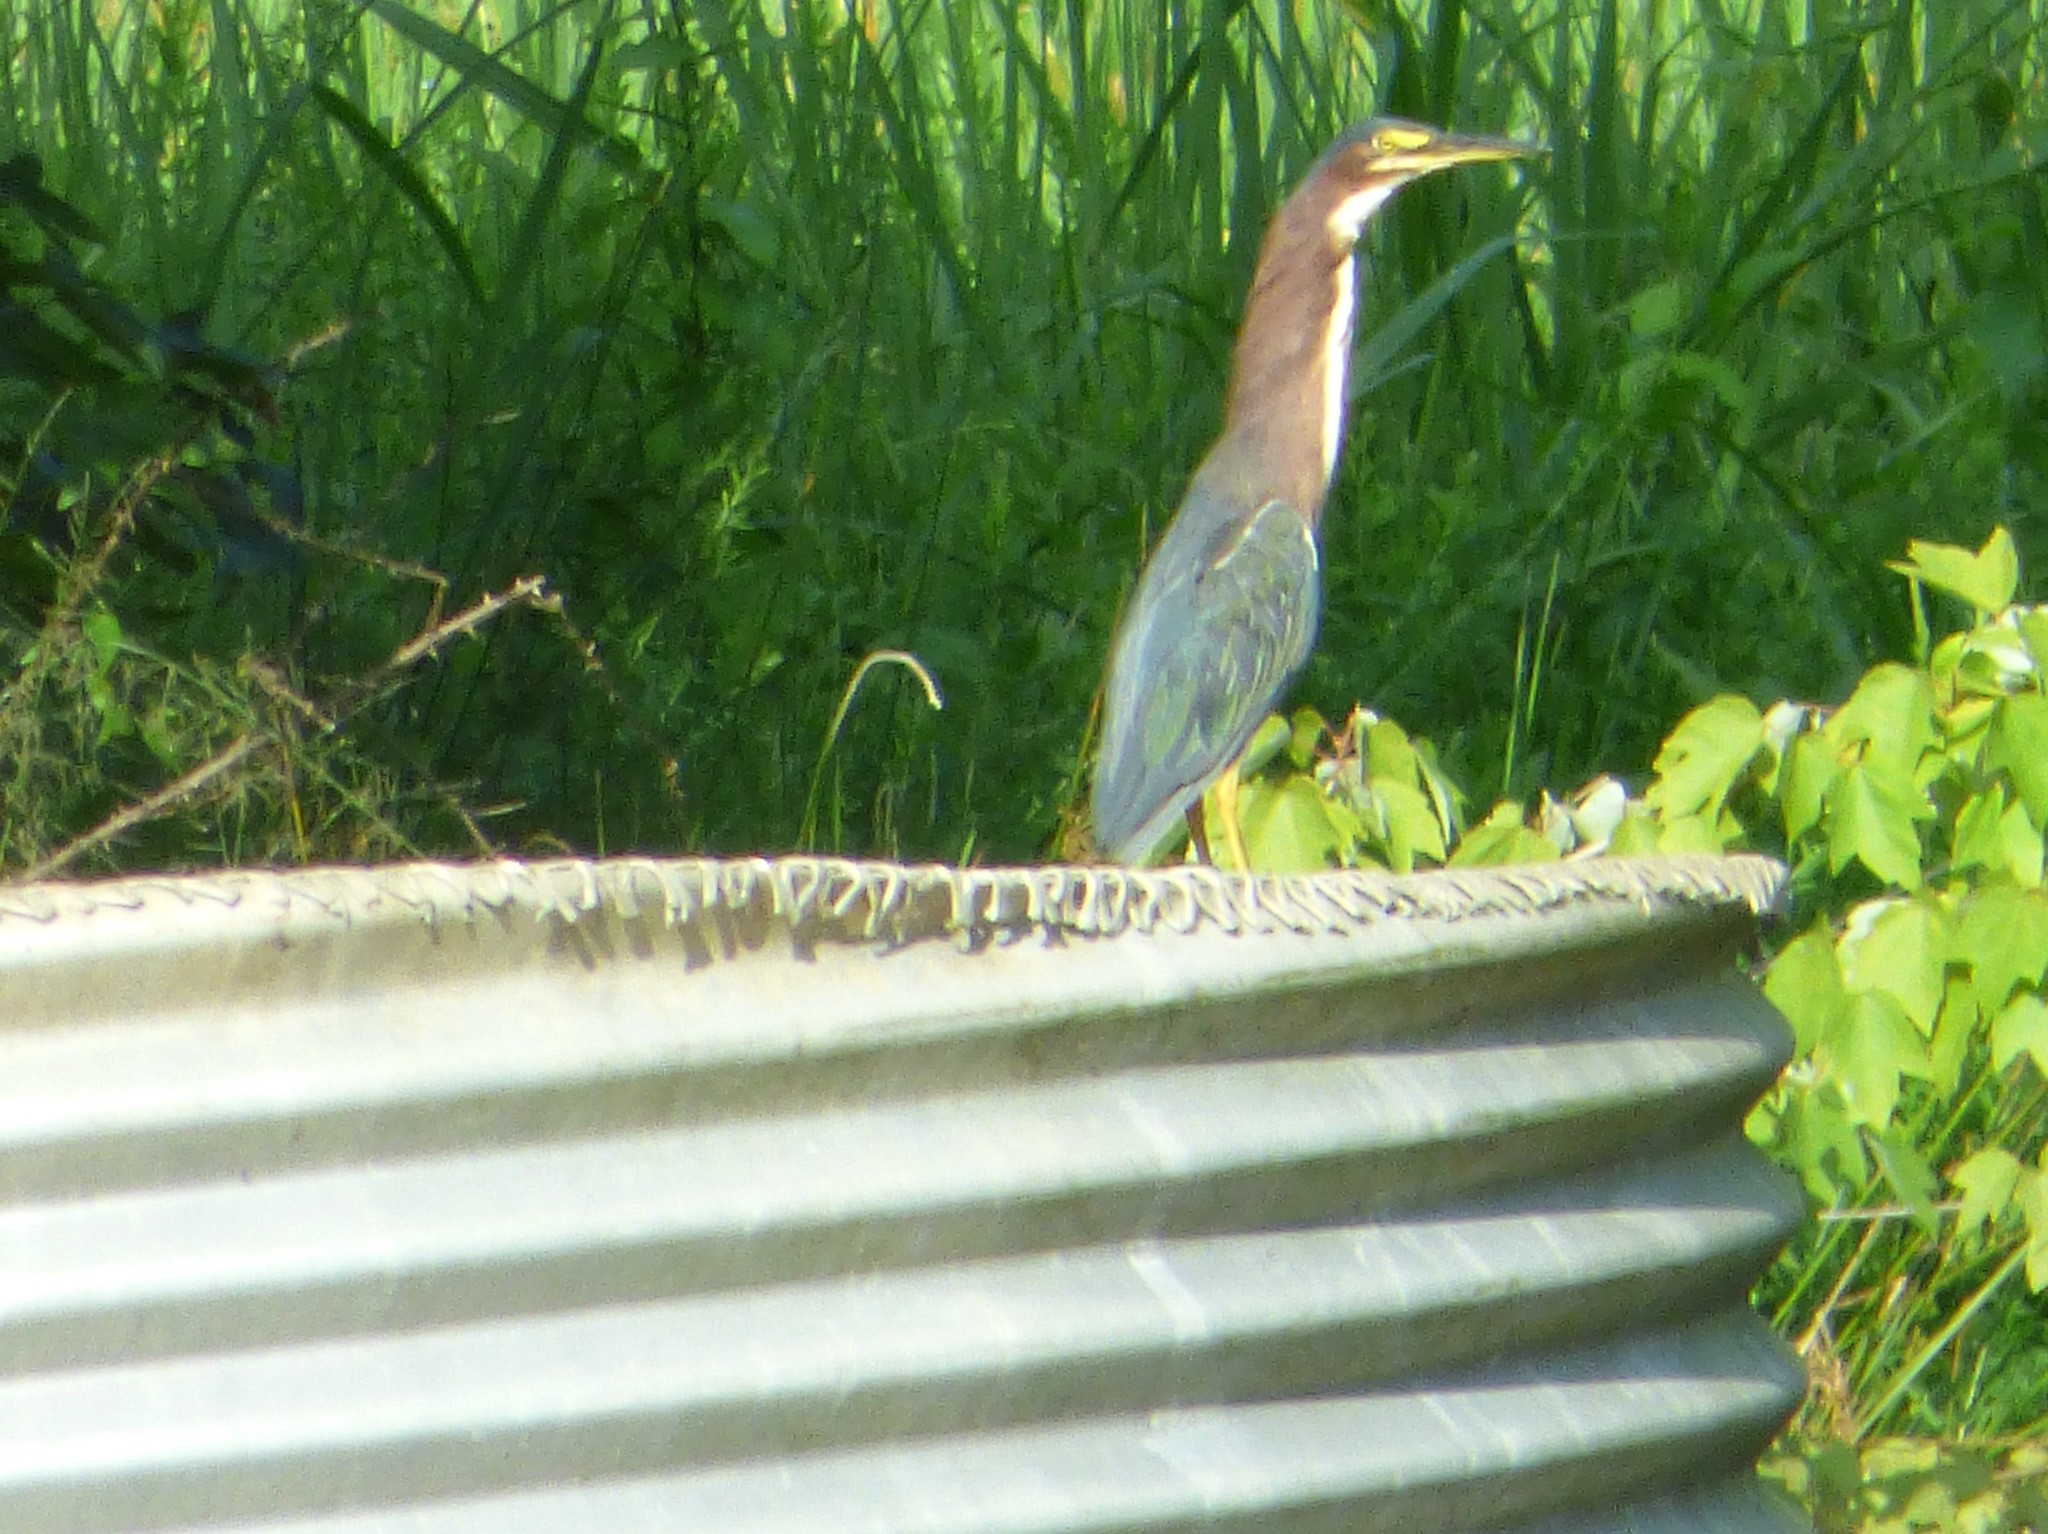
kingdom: Animalia
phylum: Chordata
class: Aves
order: Pelecaniformes
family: Ardeidae
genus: Butorides
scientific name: Butorides virescens
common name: Green heron
